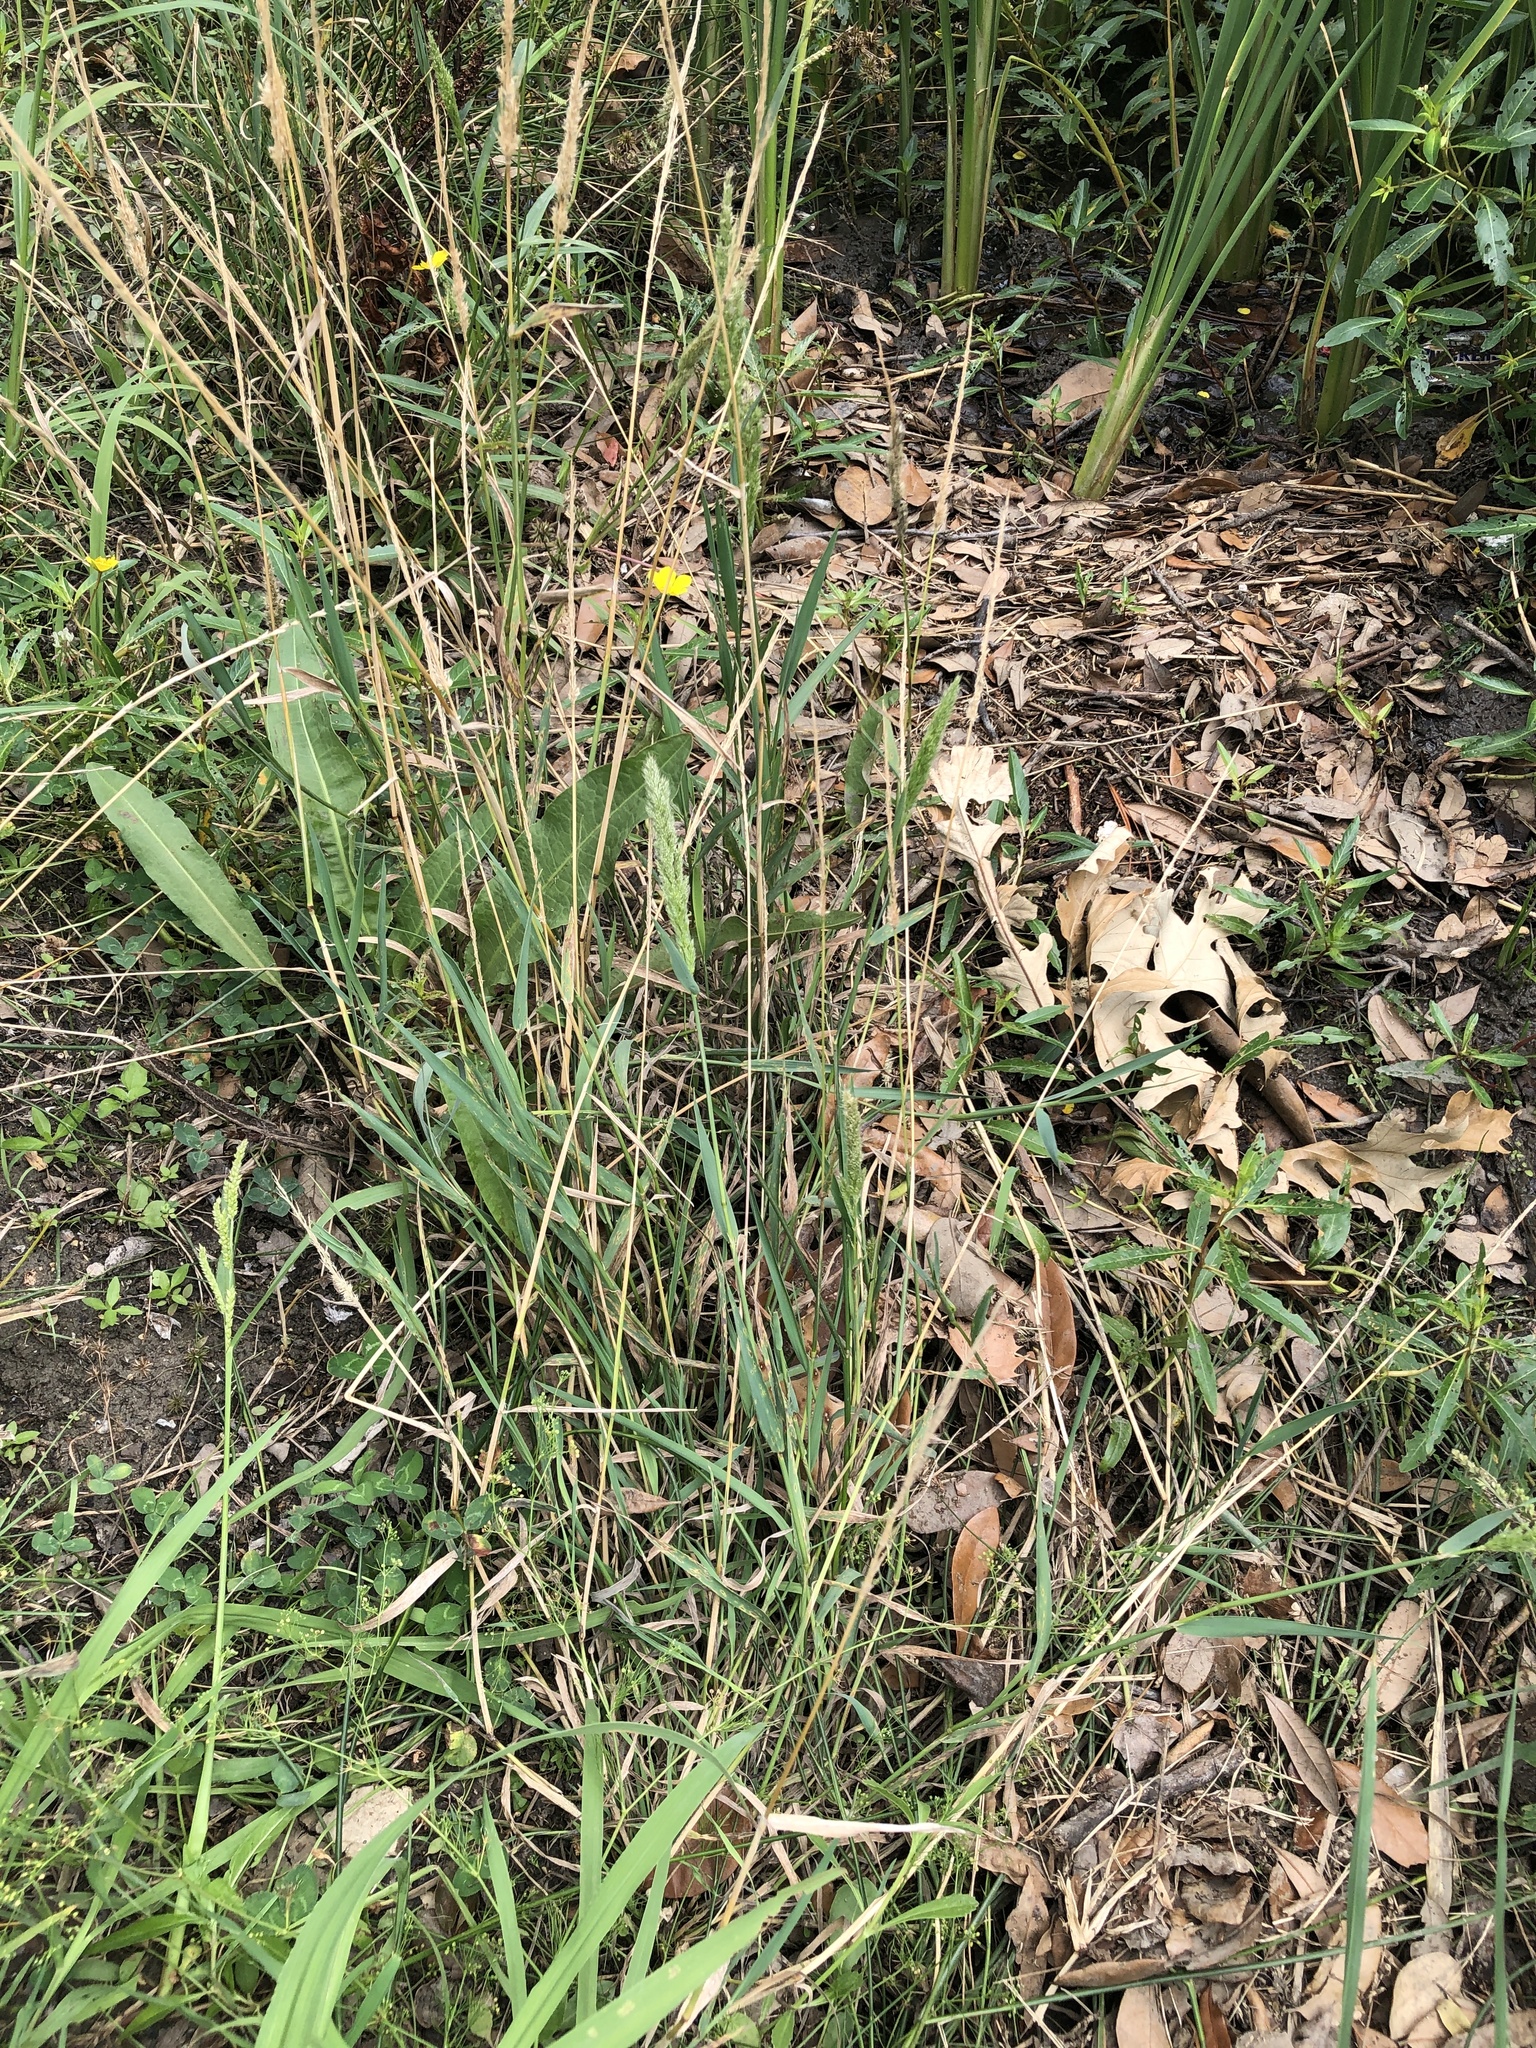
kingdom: Plantae
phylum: Tracheophyta
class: Liliopsida
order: Poales
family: Poaceae
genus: Polypogon
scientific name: Polypogon monspeliensis
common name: Annual rabbitsfoot grass
